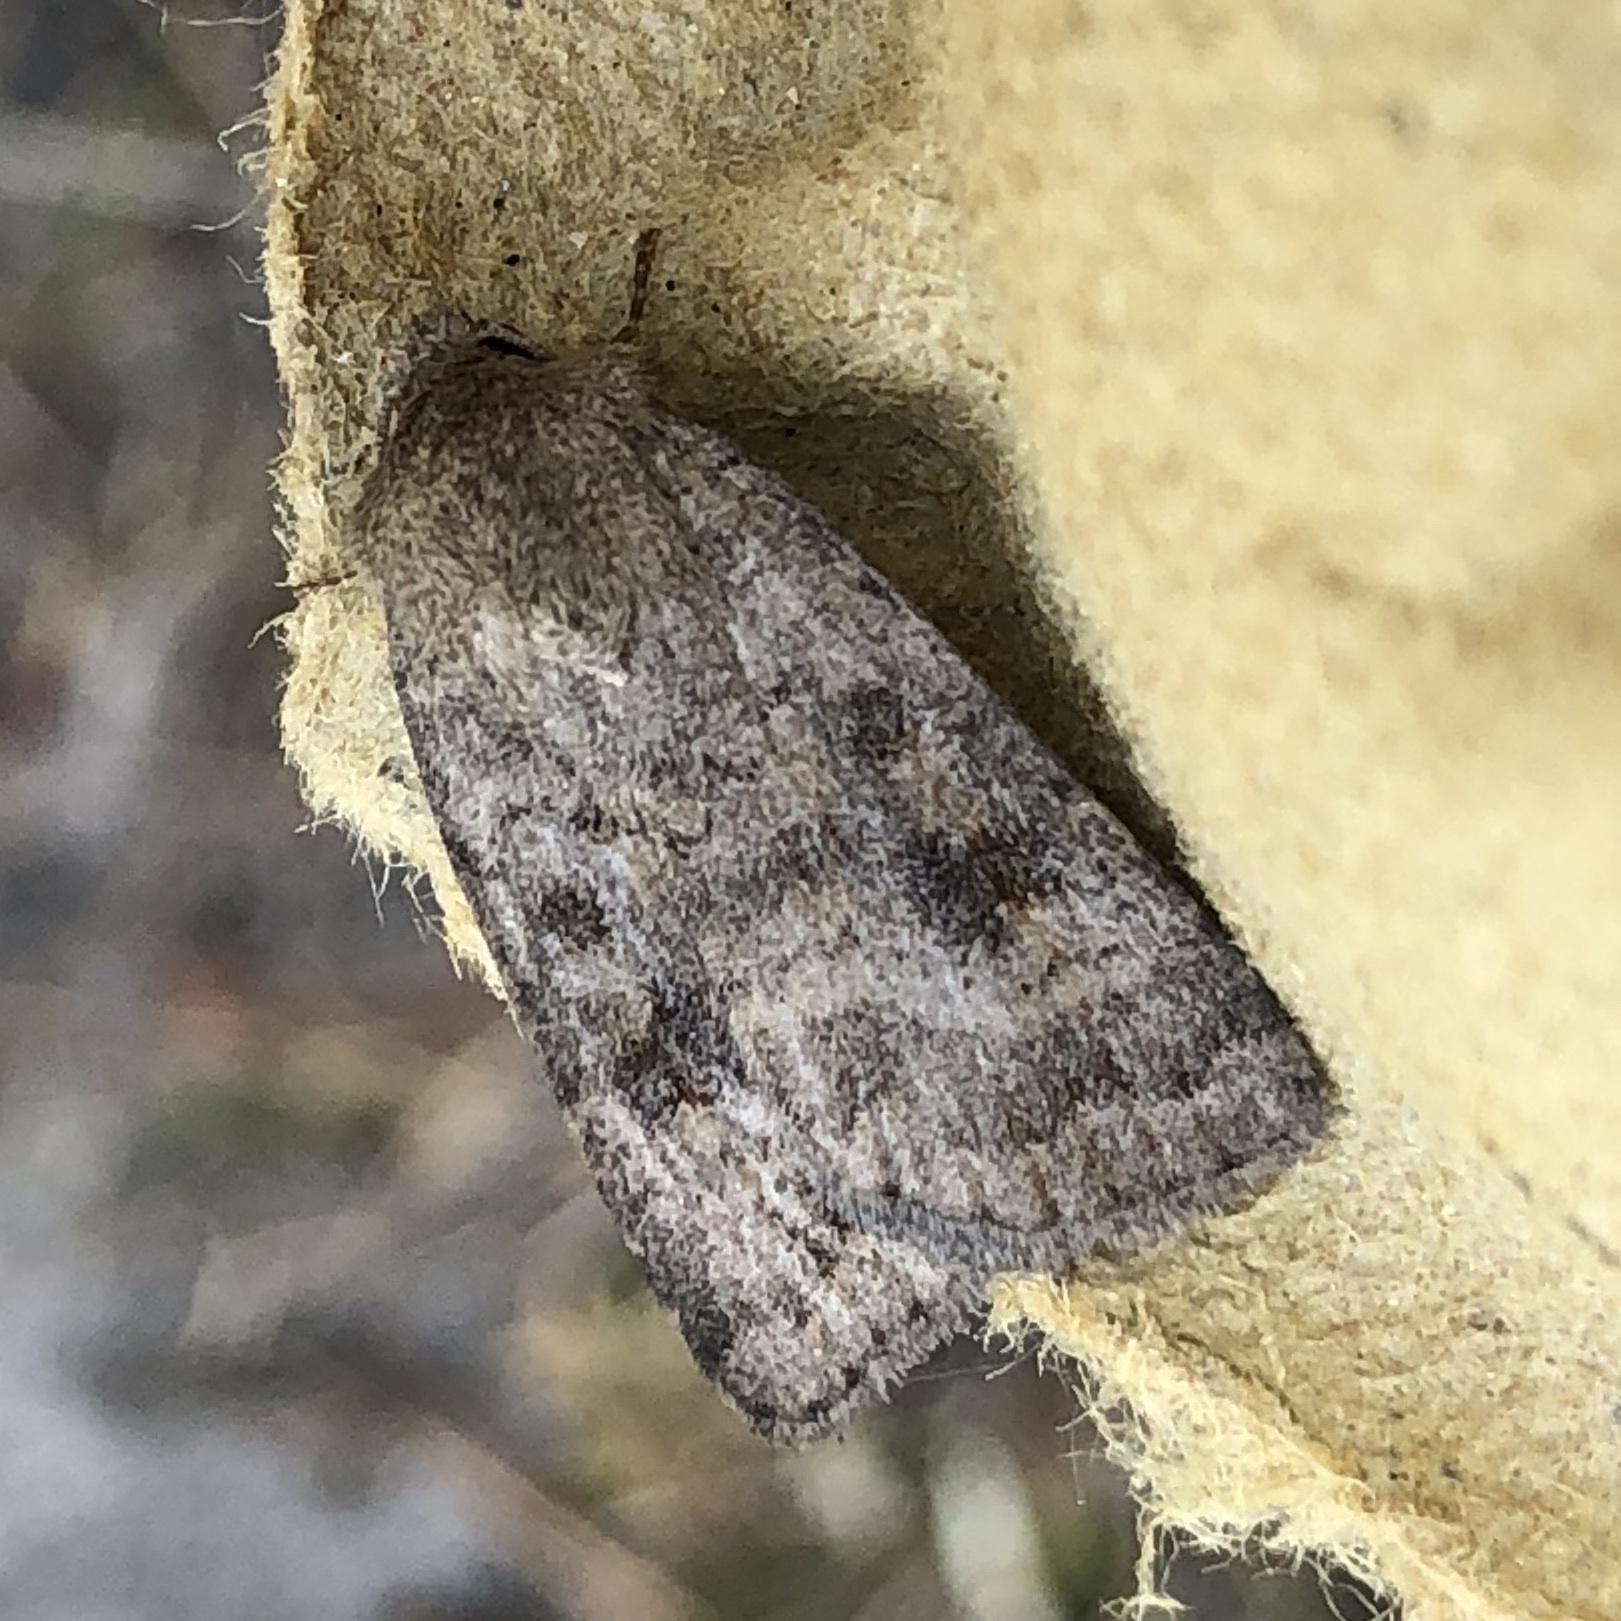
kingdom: Animalia
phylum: Arthropoda
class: Insecta
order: Lepidoptera
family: Noctuidae
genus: Caradrina
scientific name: Caradrina morpheus
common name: Mottled rustic
